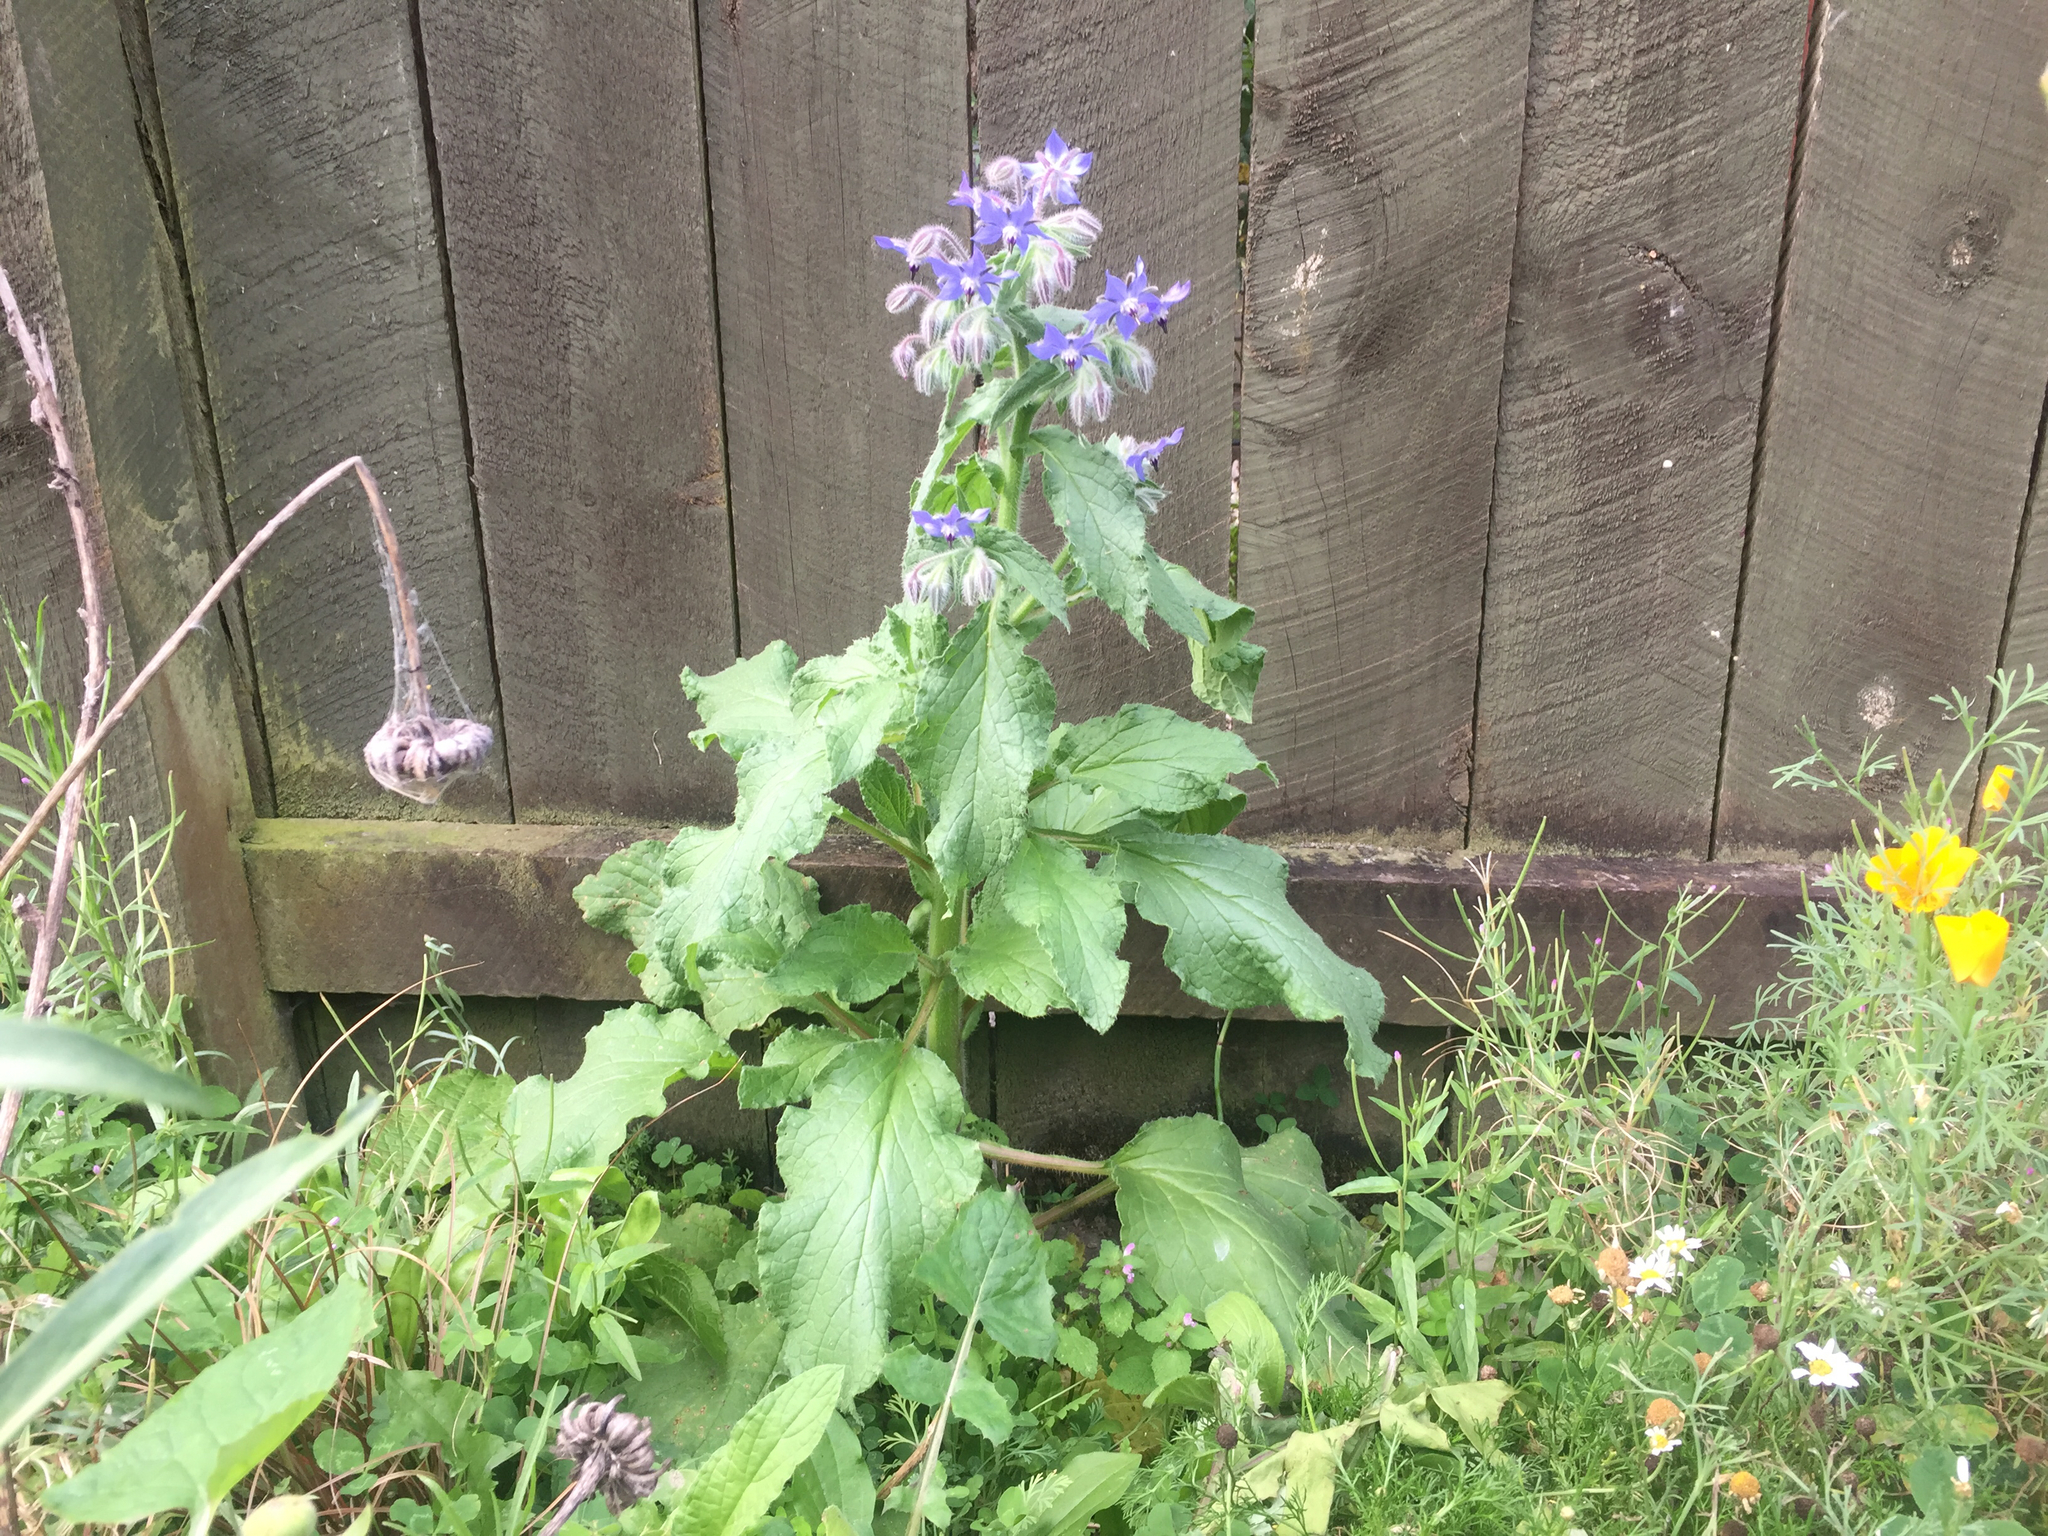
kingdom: Plantae
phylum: Tracheophyta
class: Magnoliopsida
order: Boraginales
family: Boraginaceae
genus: Borago
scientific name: Borago officinalis
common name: Borage
